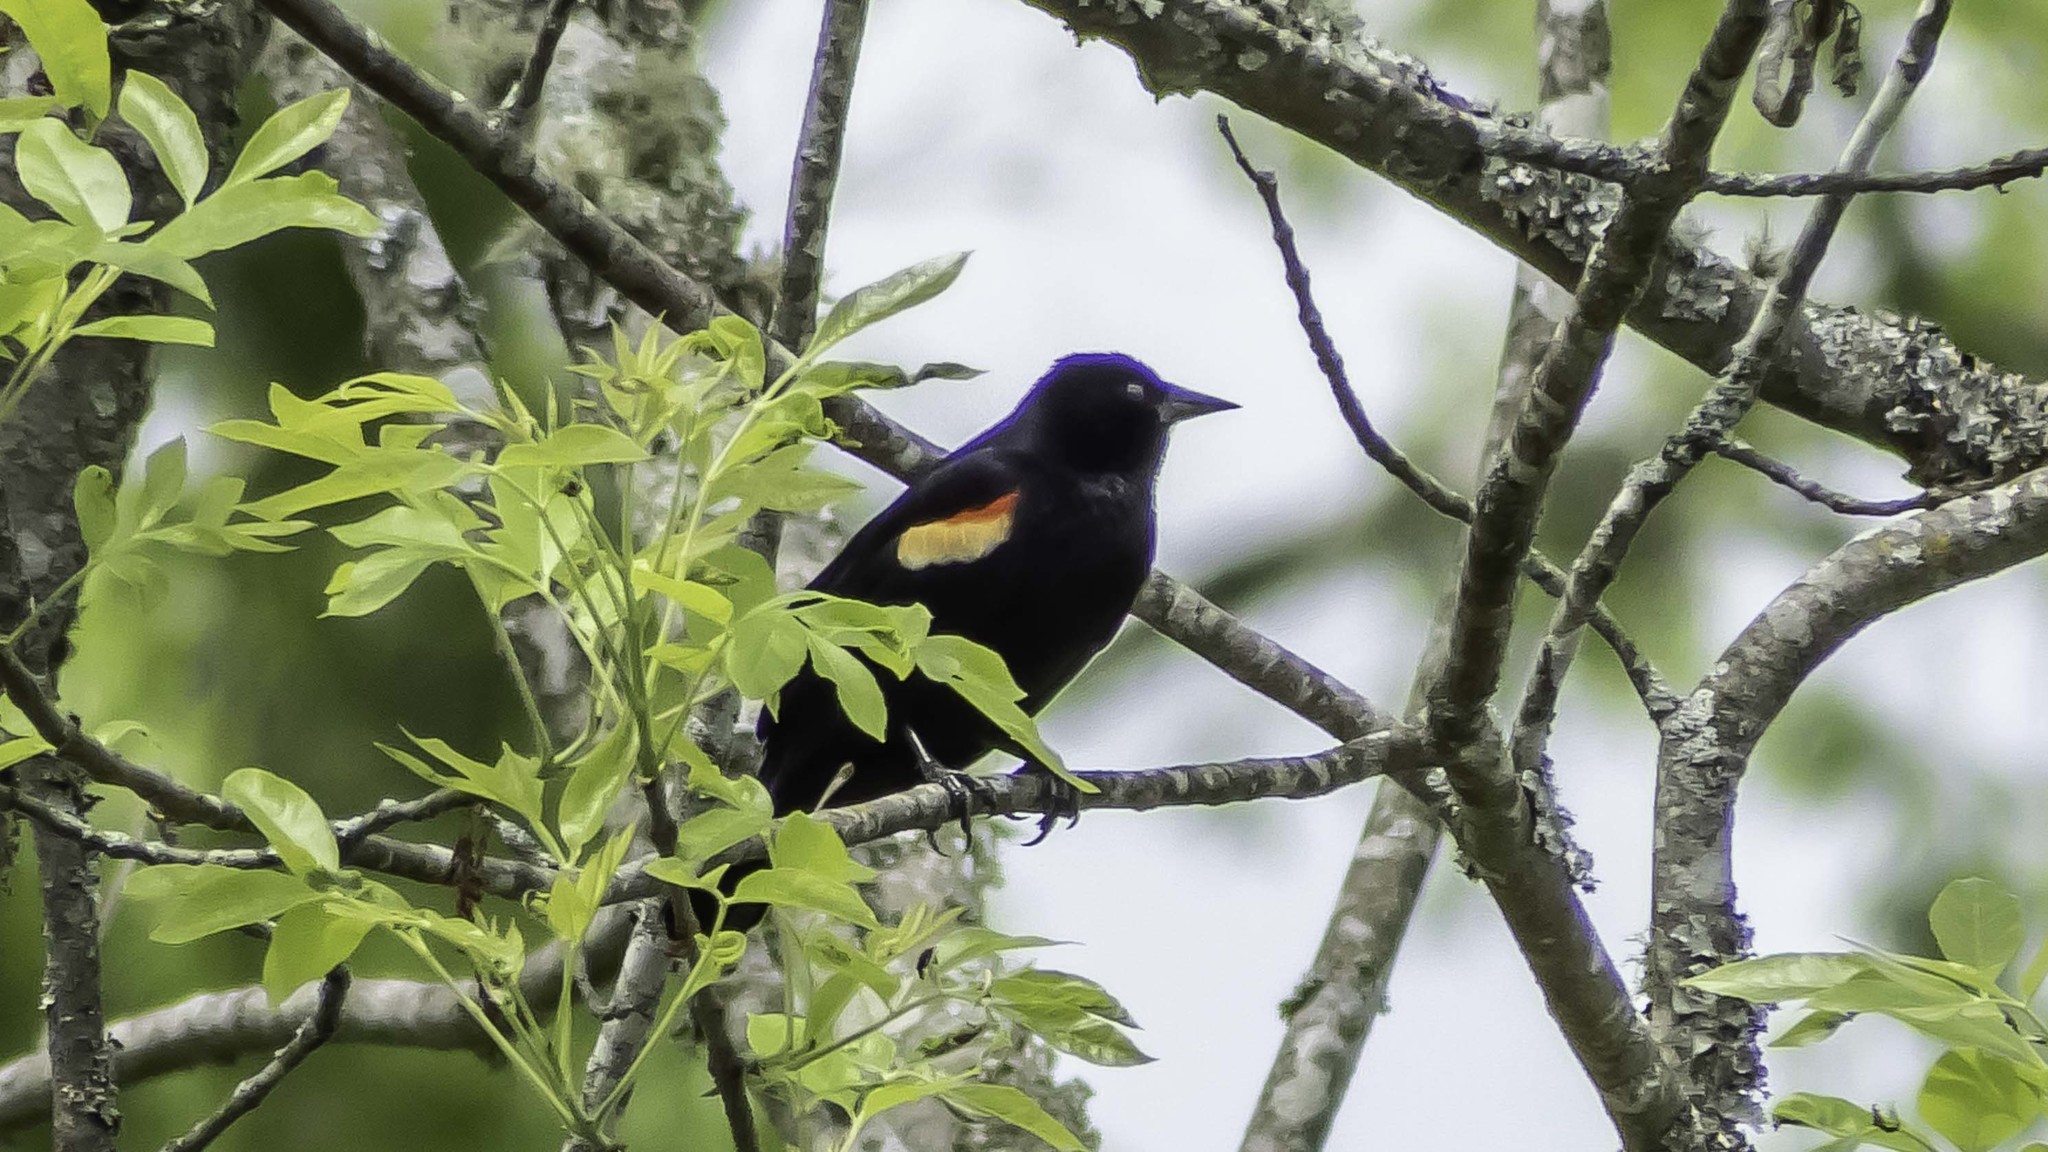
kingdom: Animalia
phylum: Chordata
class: Aves
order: Passeriformes
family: Icteridae
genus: Agelaius
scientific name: Agelaius phoeniceus
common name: Red-winged blackbird
